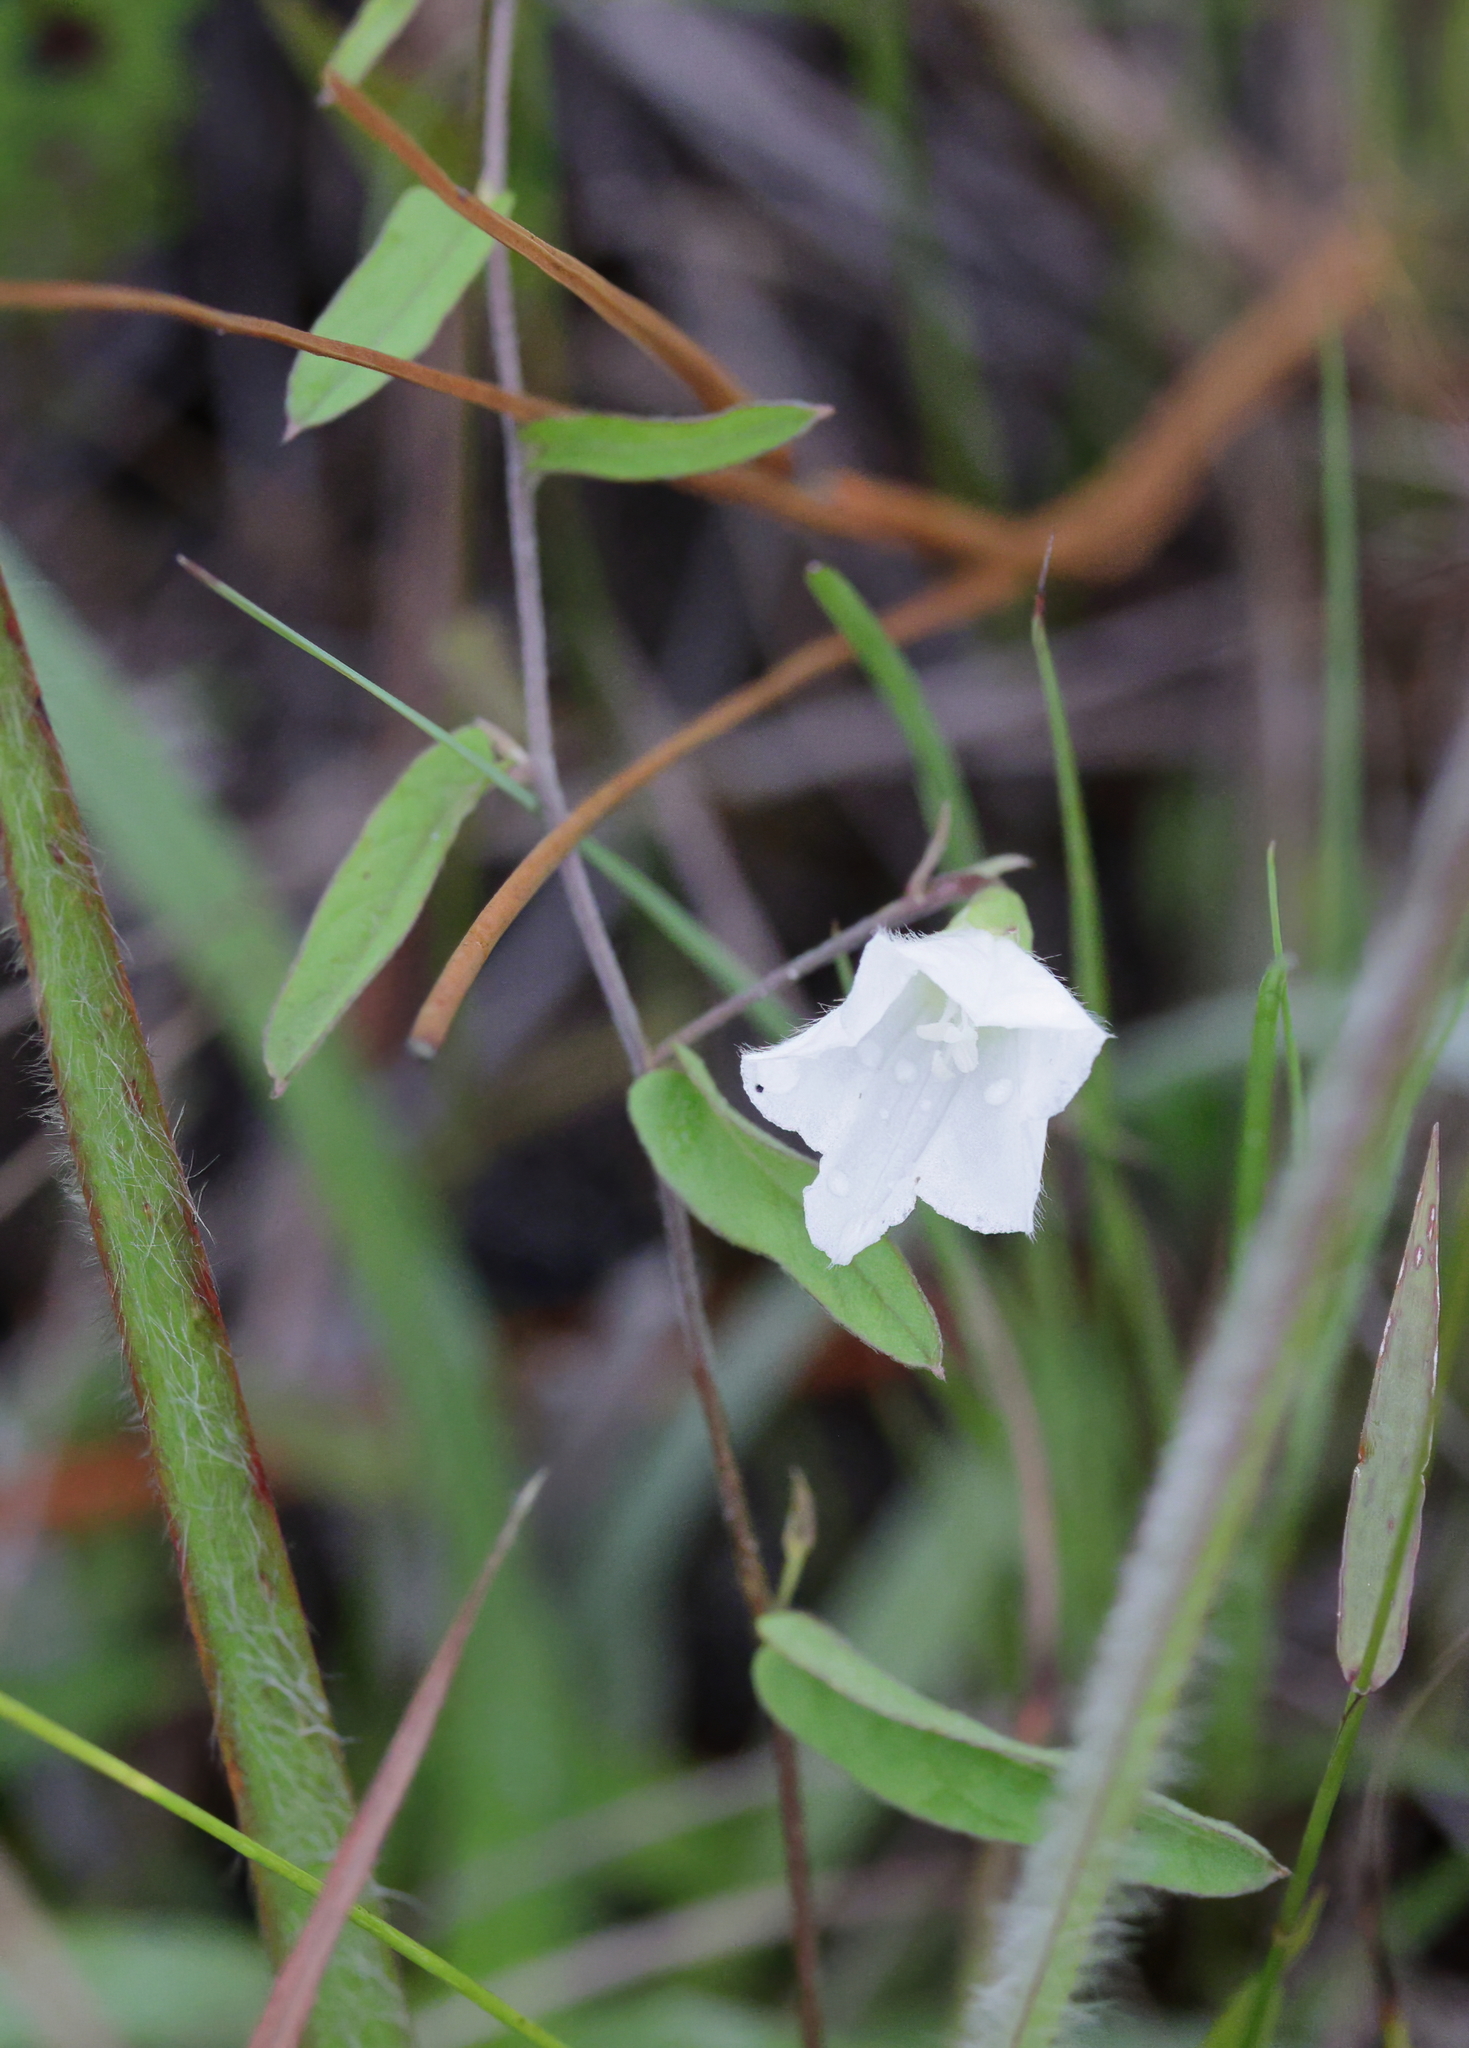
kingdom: Plantae
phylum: Tracheophyta
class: Magnoliopsida
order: Solanales
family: Convolvulaceae
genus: Stylisma
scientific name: Stylisma patens
